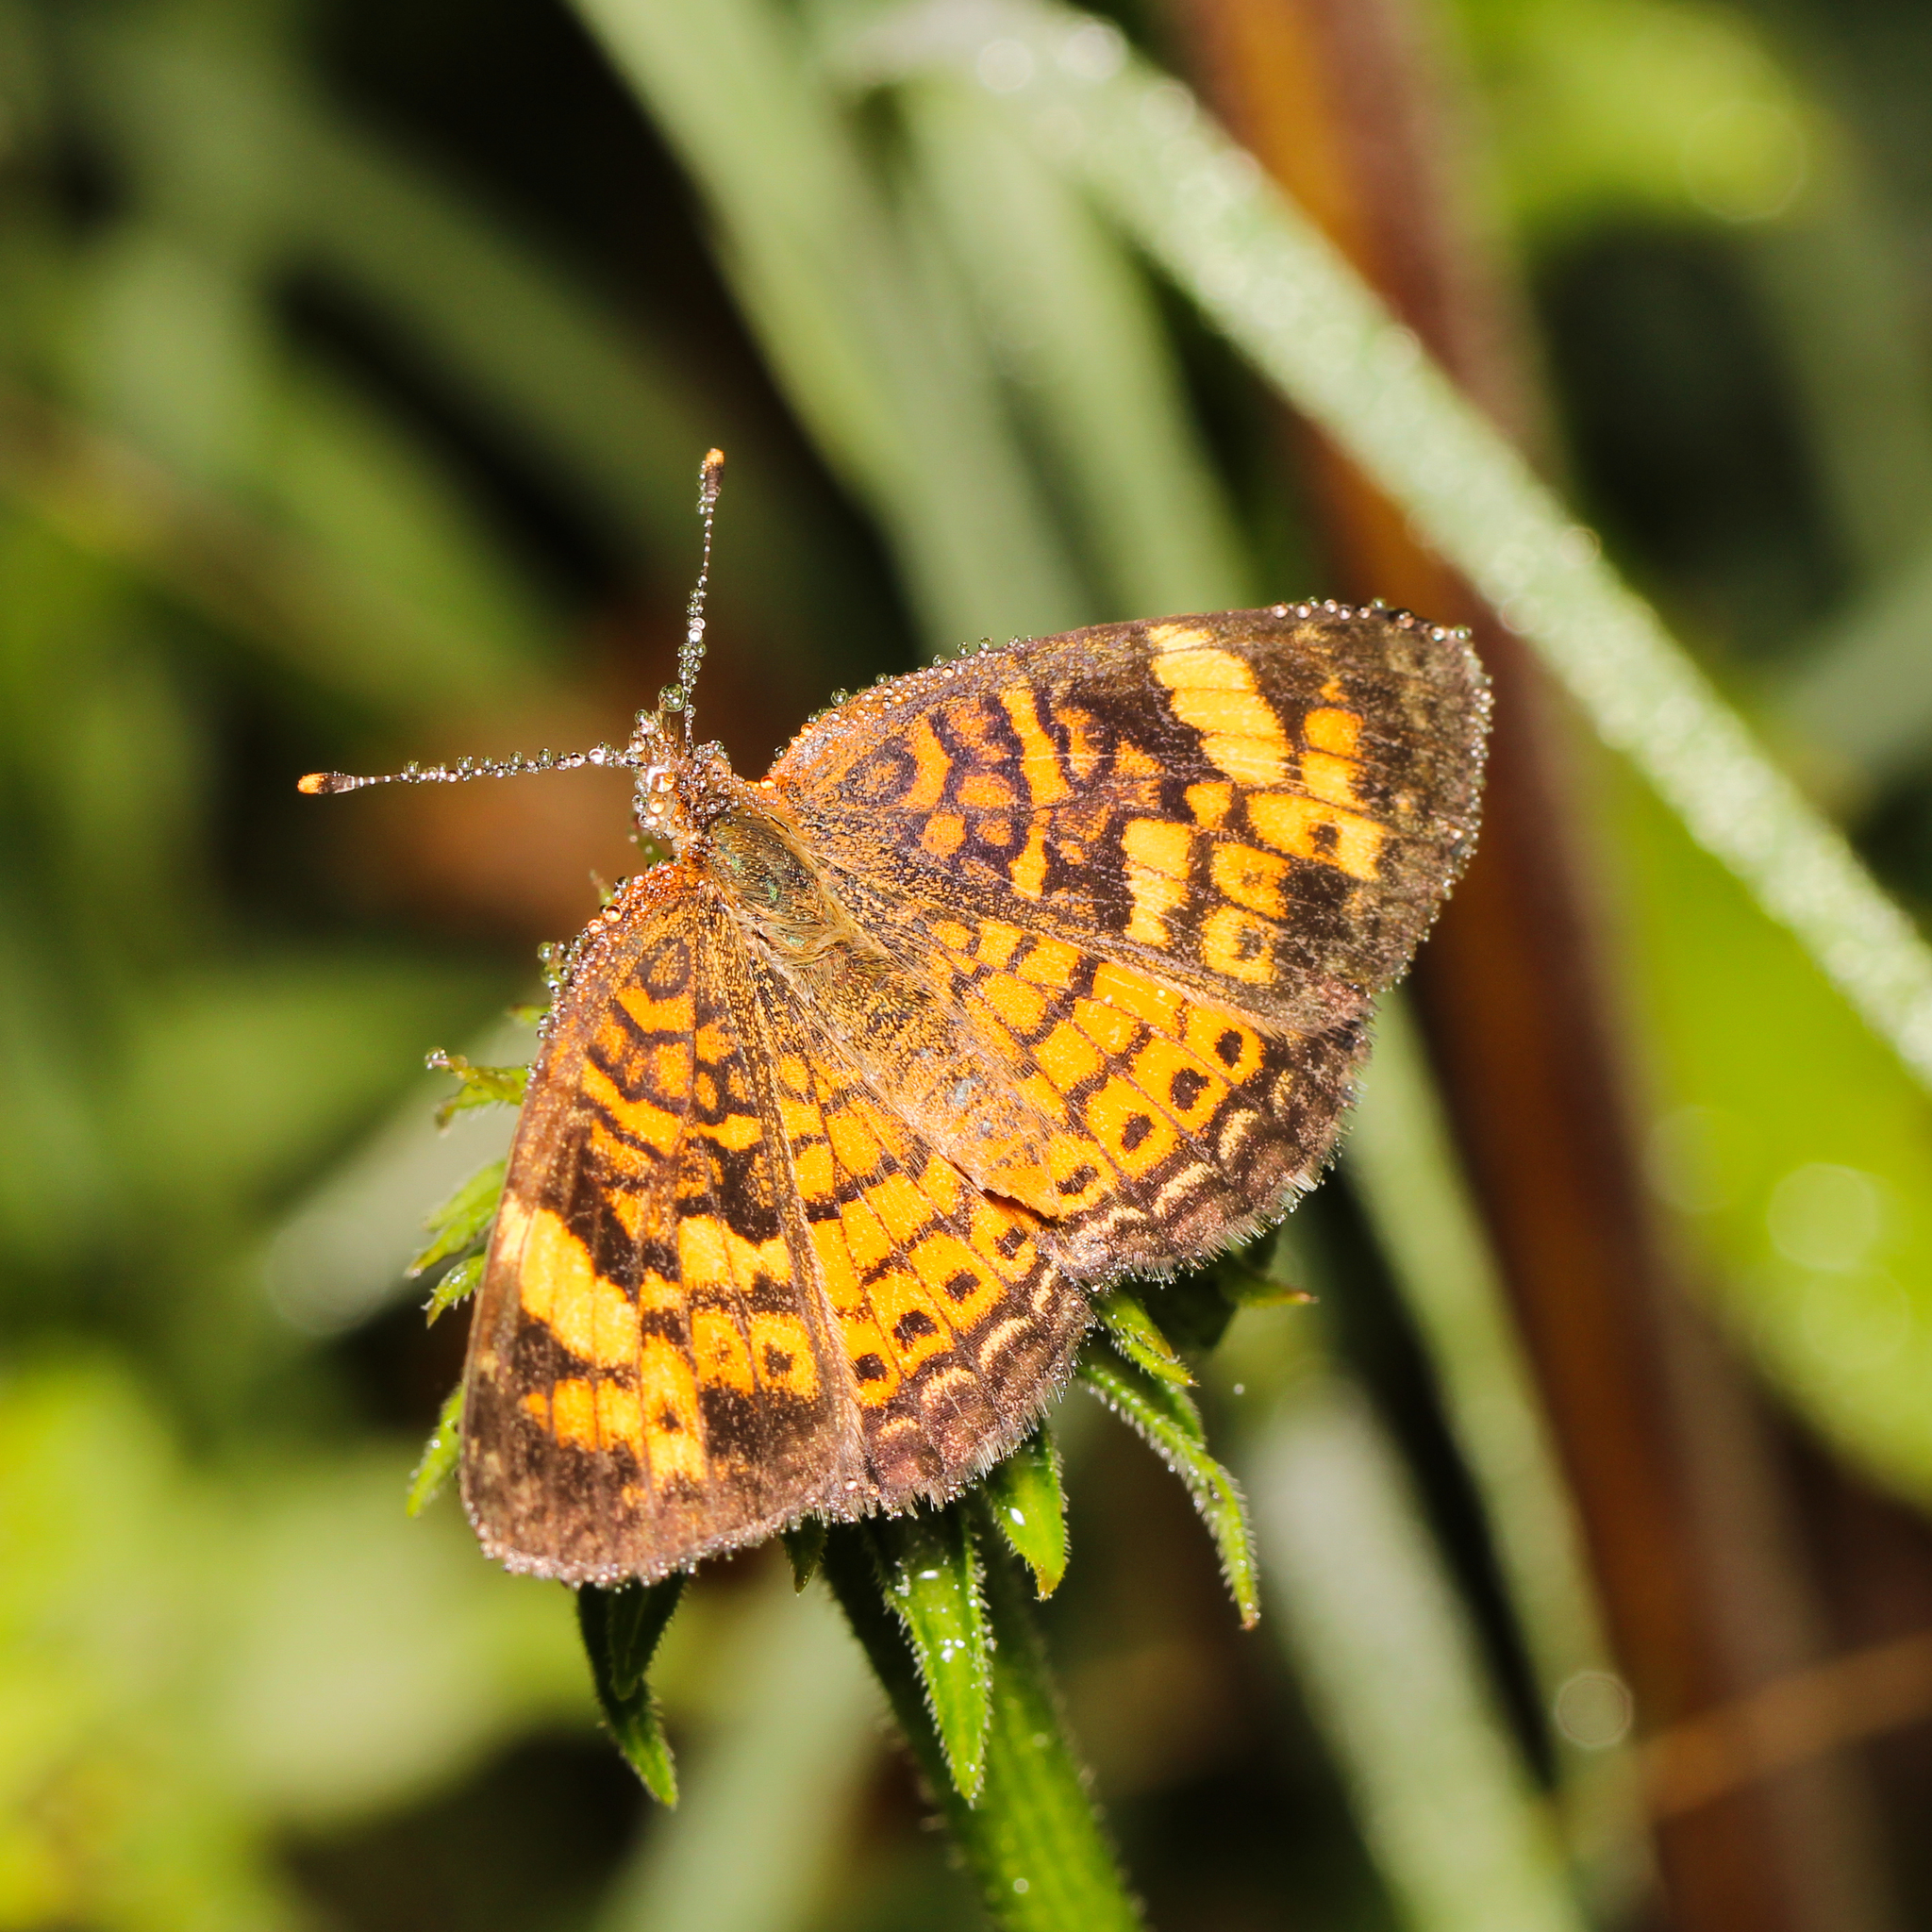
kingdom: Animalia
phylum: Arthropoda
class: Insecta
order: Lepidoptera
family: Nymphalidae
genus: Phyciodes
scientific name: Phyciodes tharos
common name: Pearl crescent
